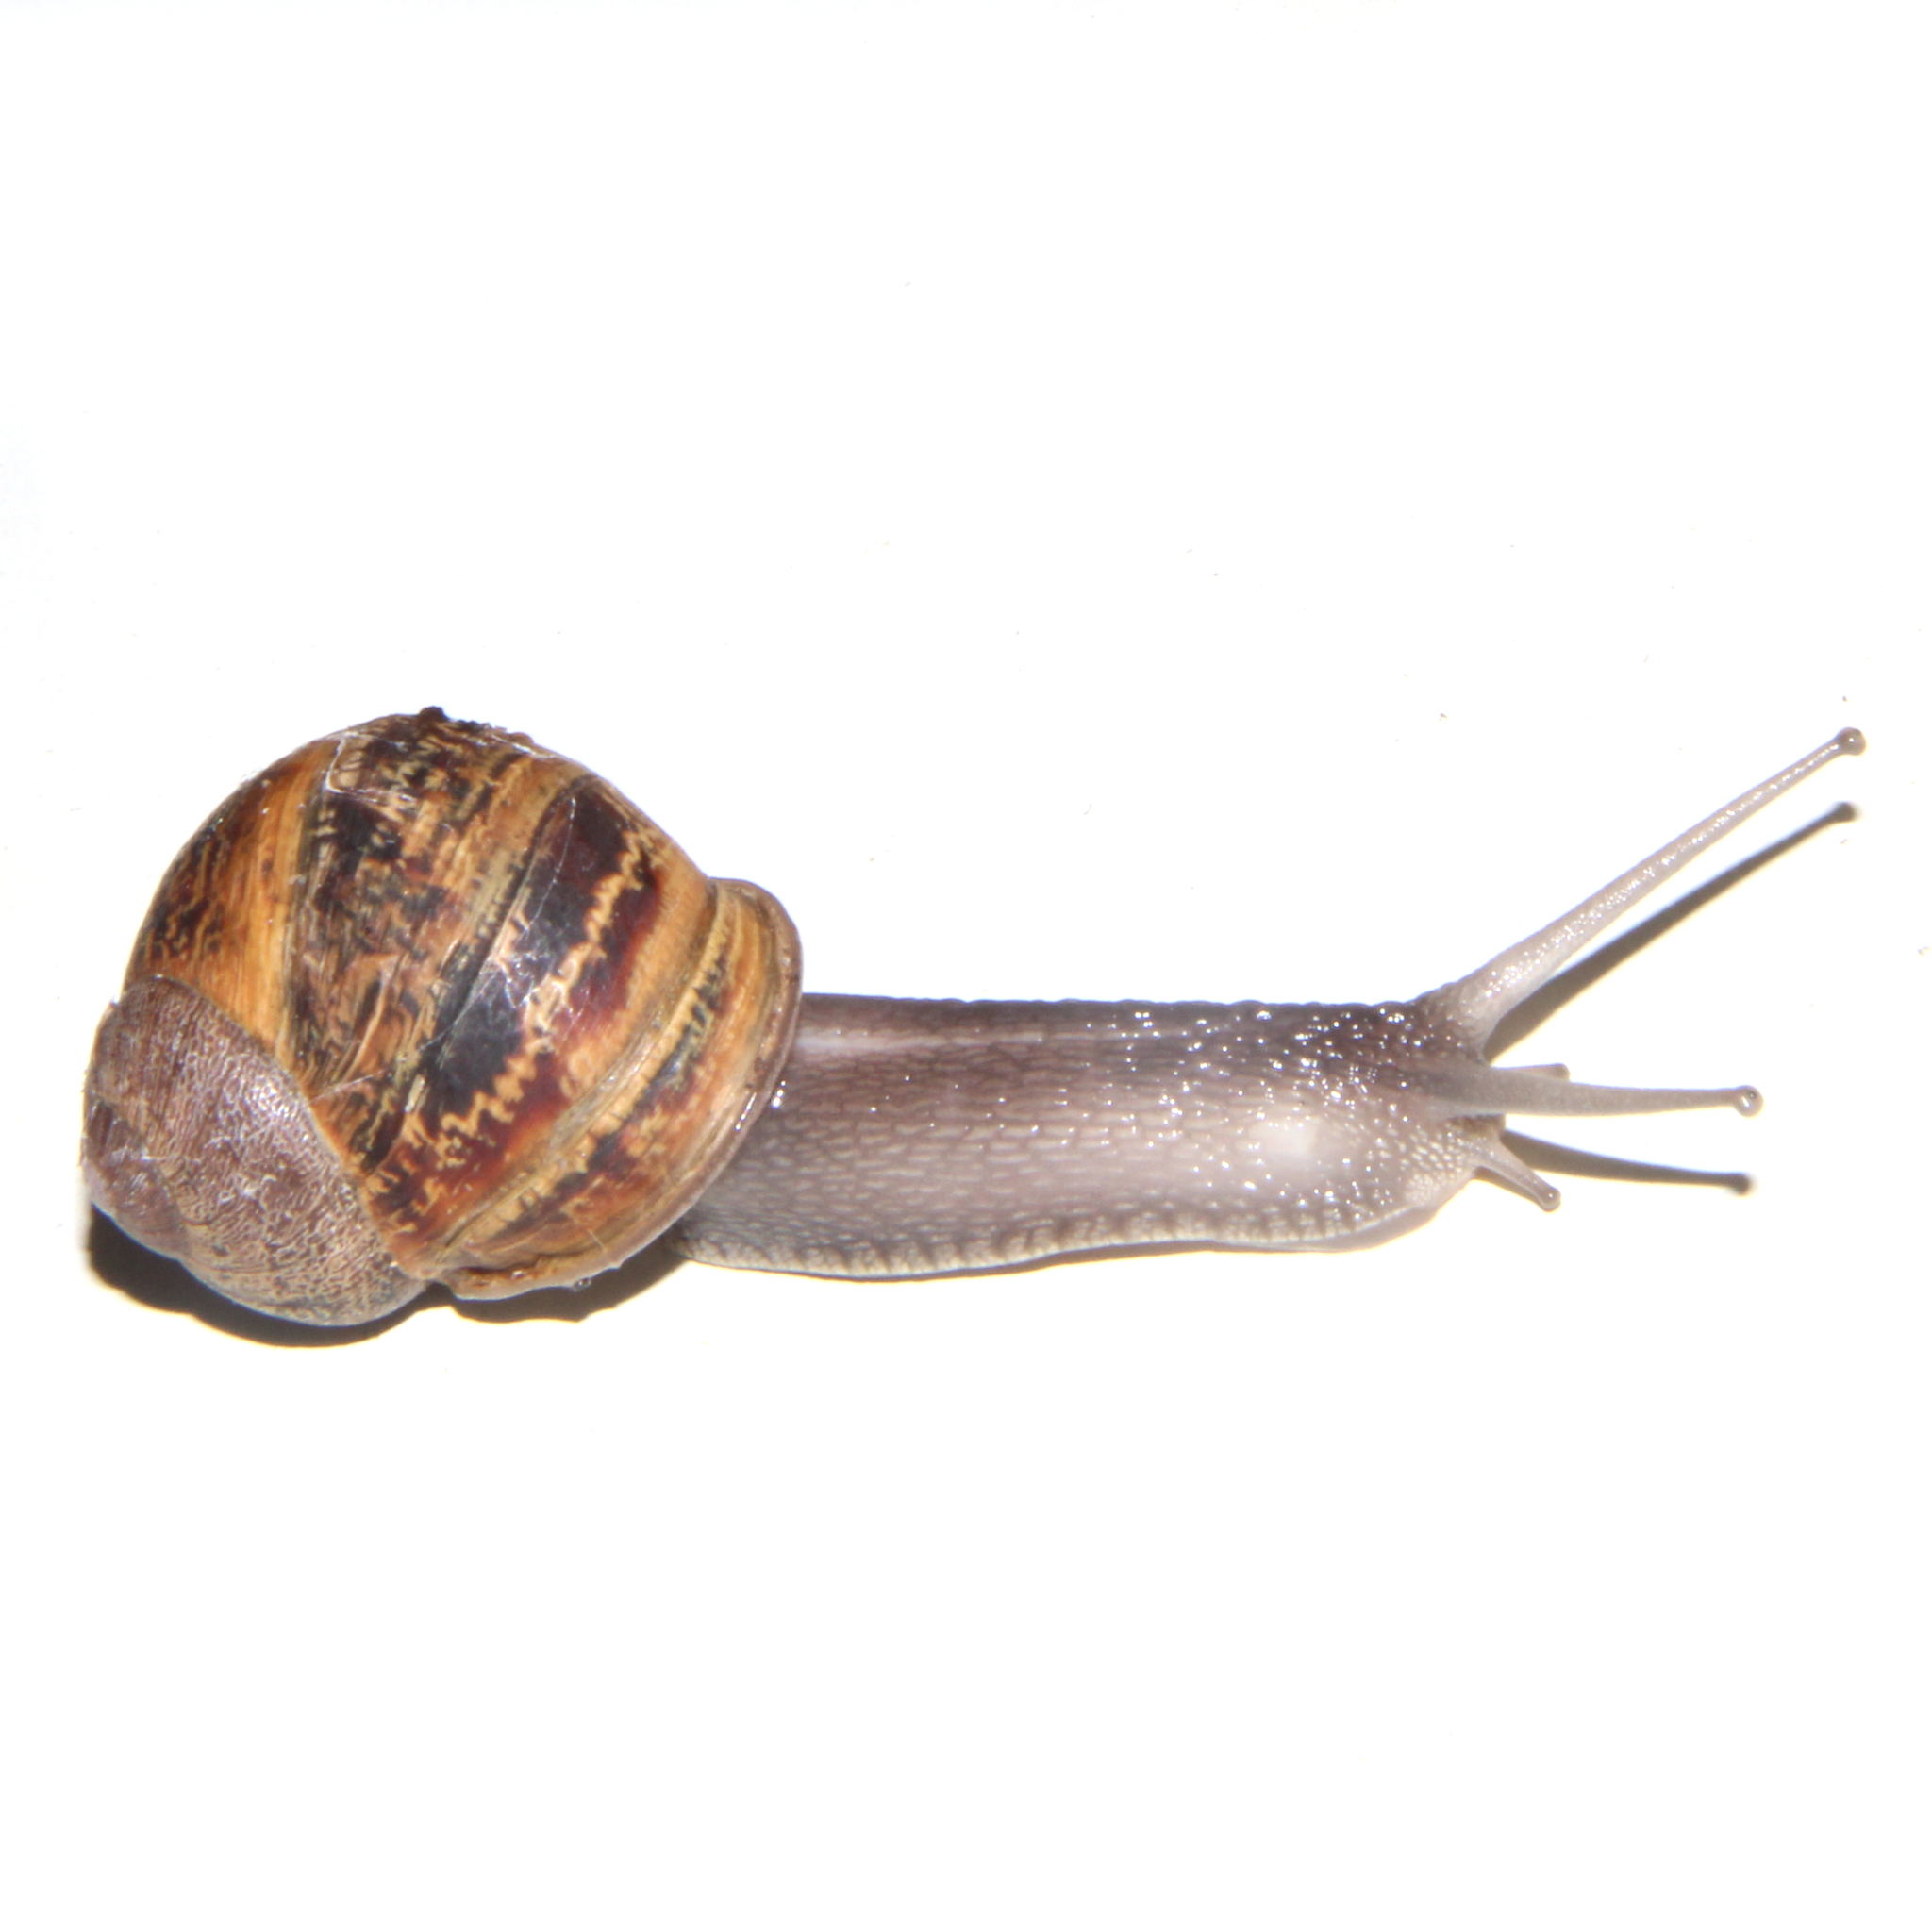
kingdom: Animalia
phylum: Mollusca
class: Gastropoda
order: Stylommatophora
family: Helicidae
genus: Cornu
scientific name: Cornu aspersum
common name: Brown garden snail
